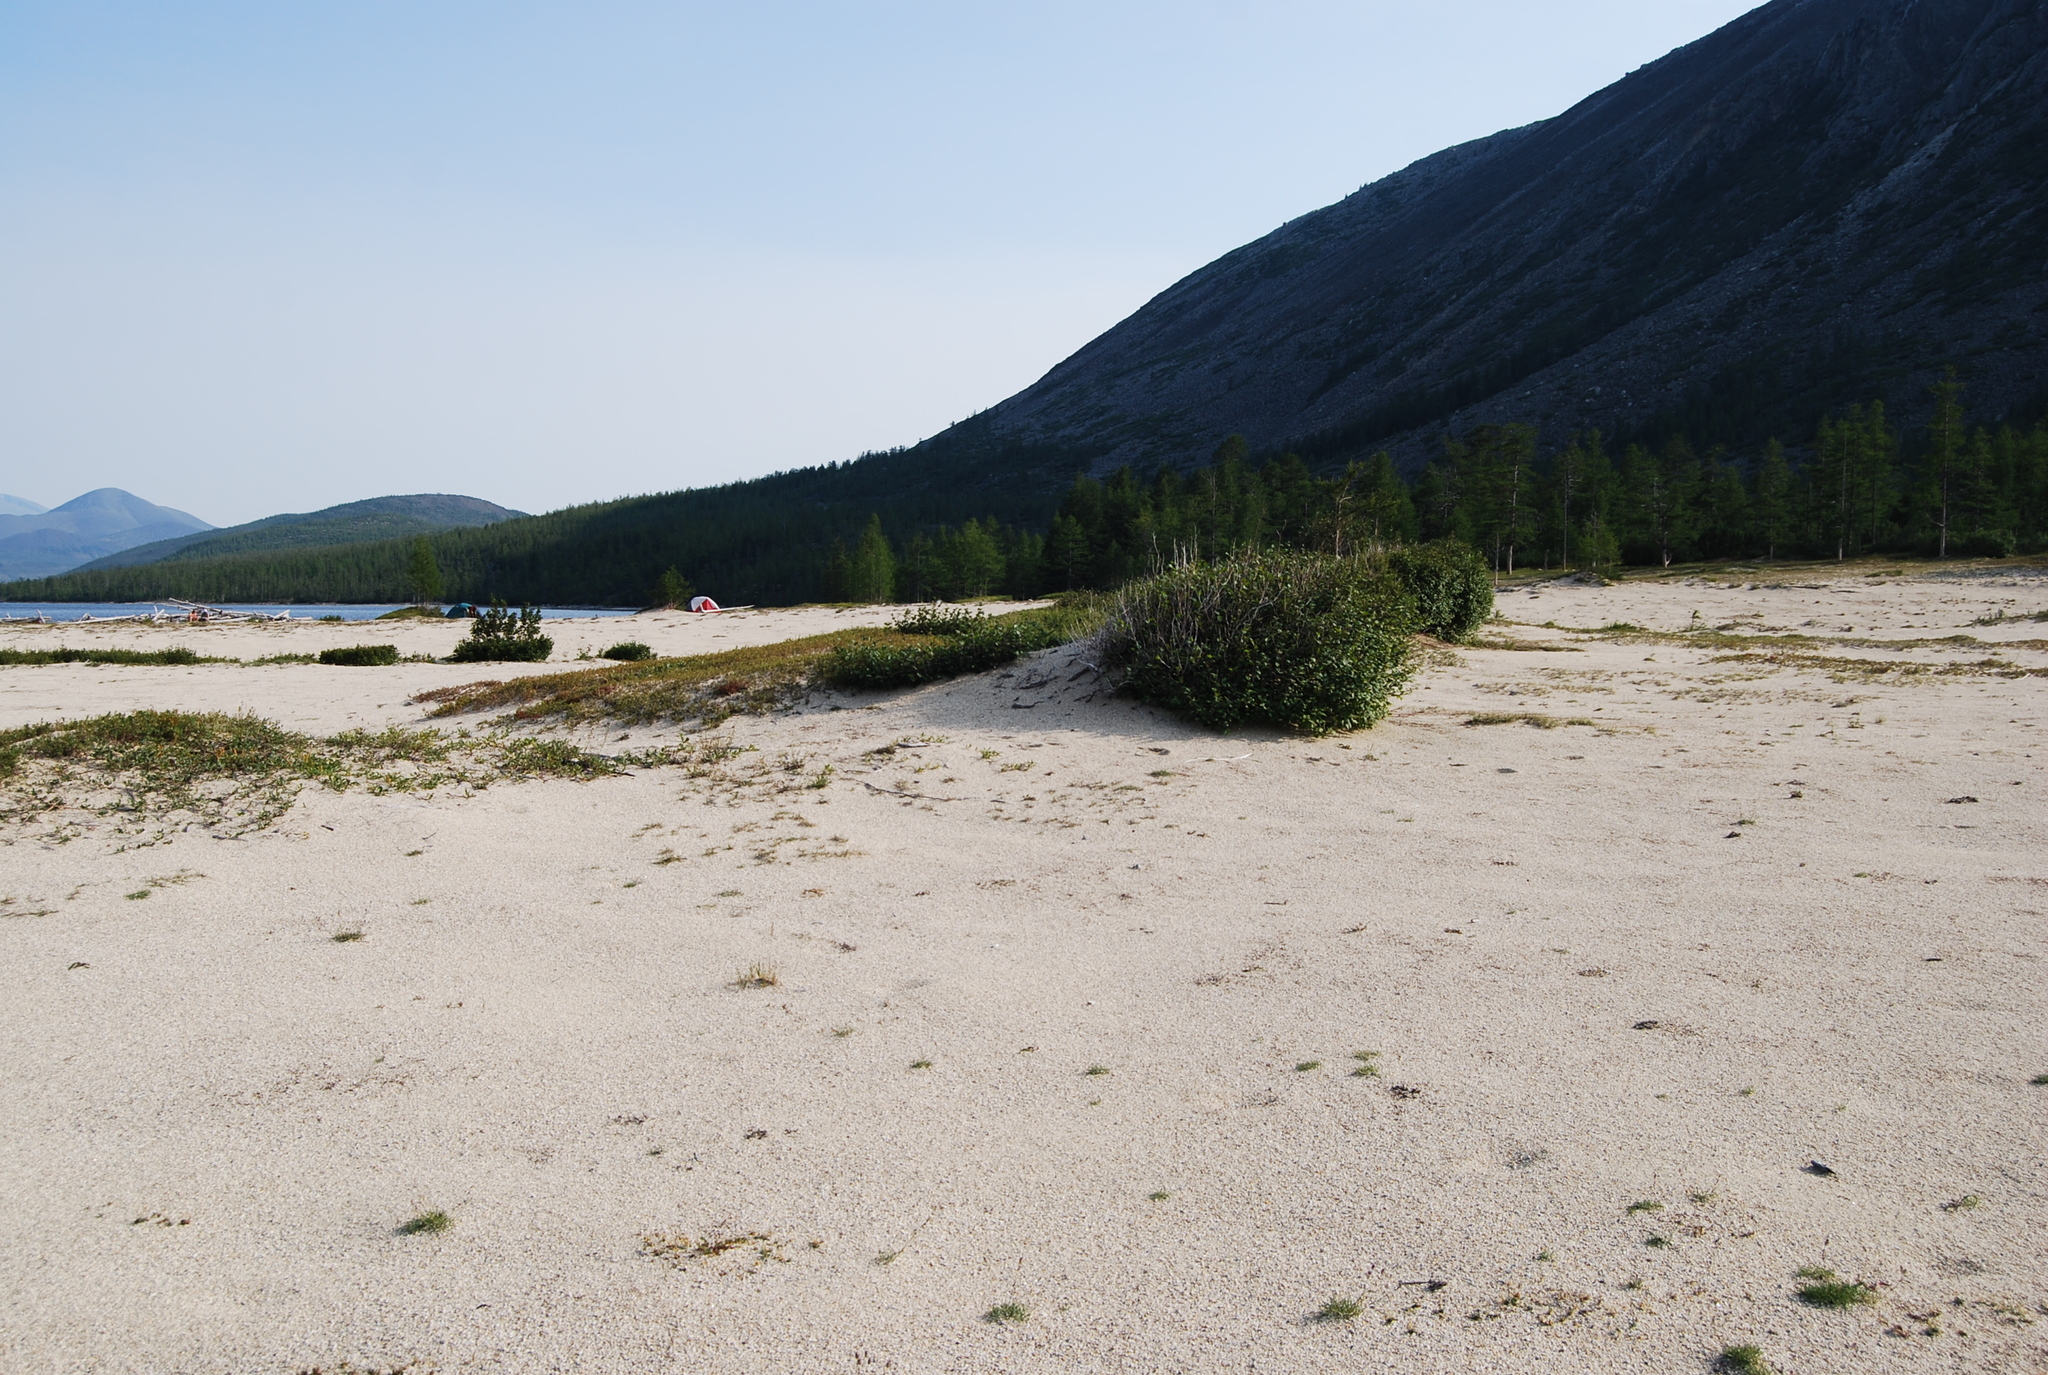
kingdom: Plantae
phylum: Tracheophyta
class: Magnoliopsida
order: Fabales
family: Fabaceae
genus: Oxytropis
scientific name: Oxytropis susumanica
